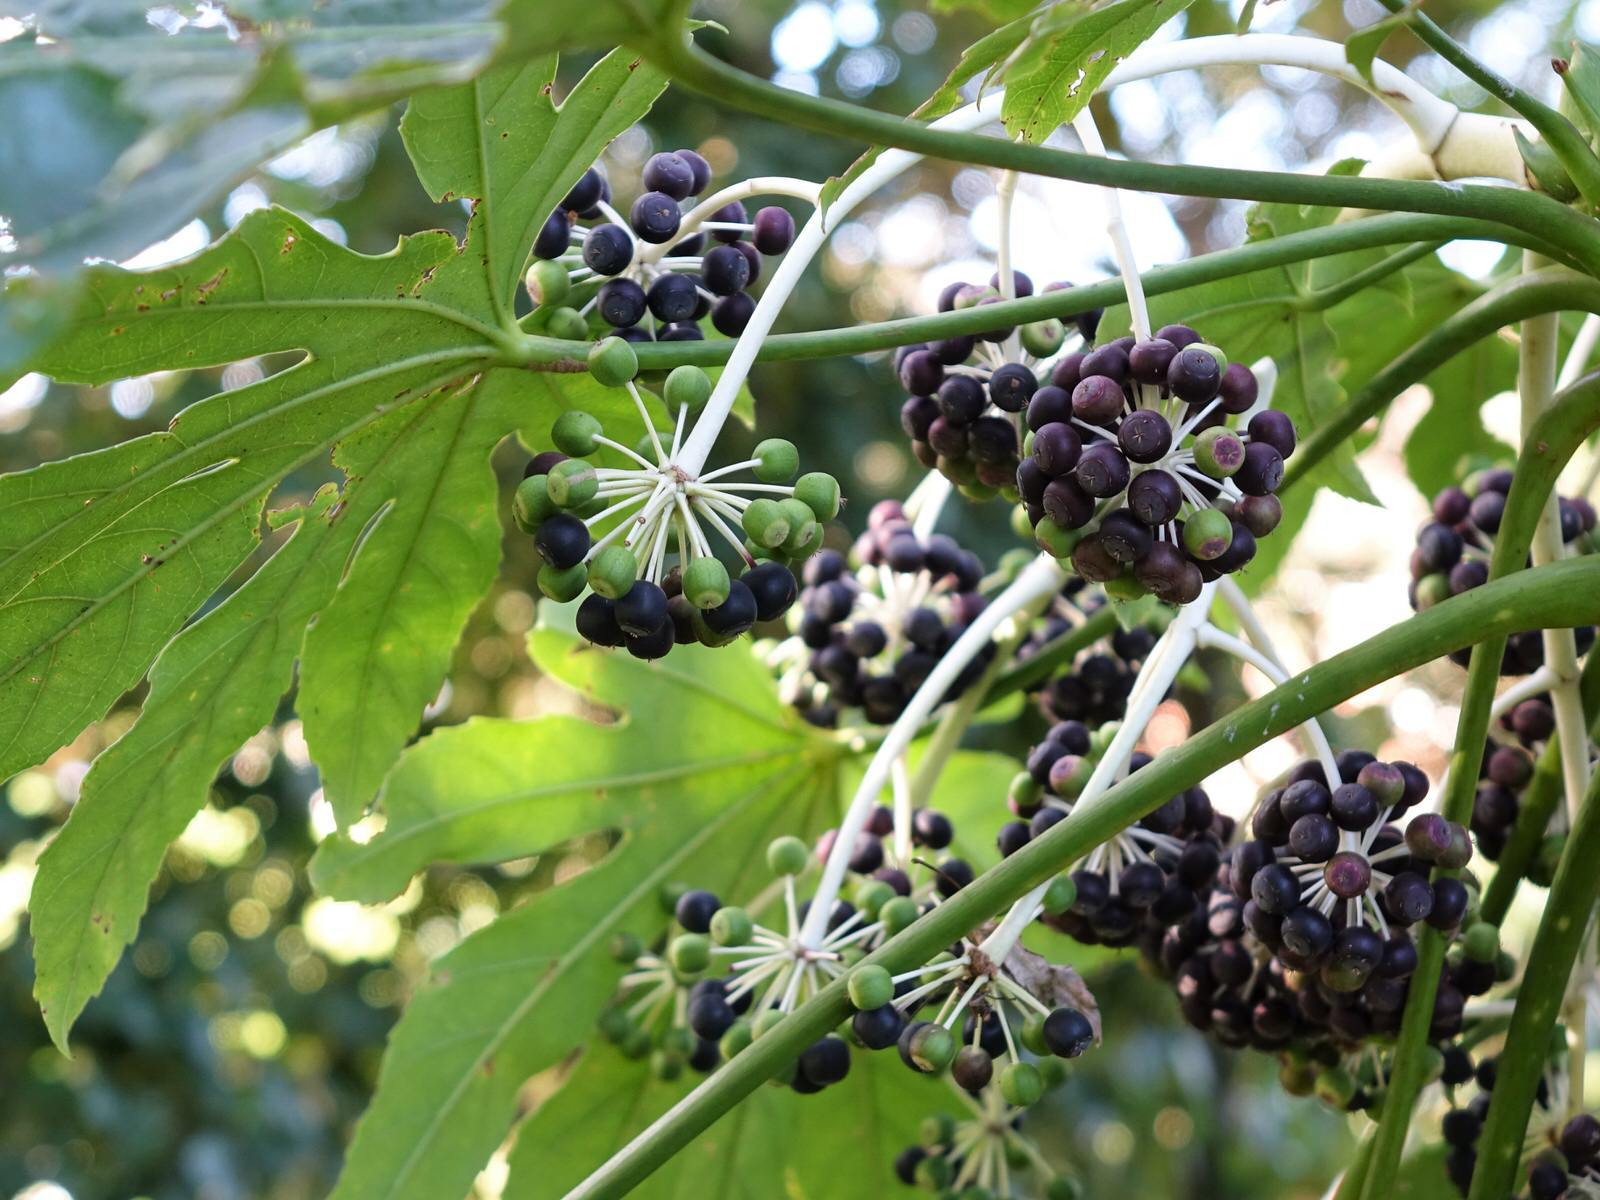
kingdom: Plantae
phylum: Tracheophyta
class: Magnoliopsida
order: Apiales
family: Araliaceae
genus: Fatsia
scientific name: Fatsia japonica
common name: Fatsia
